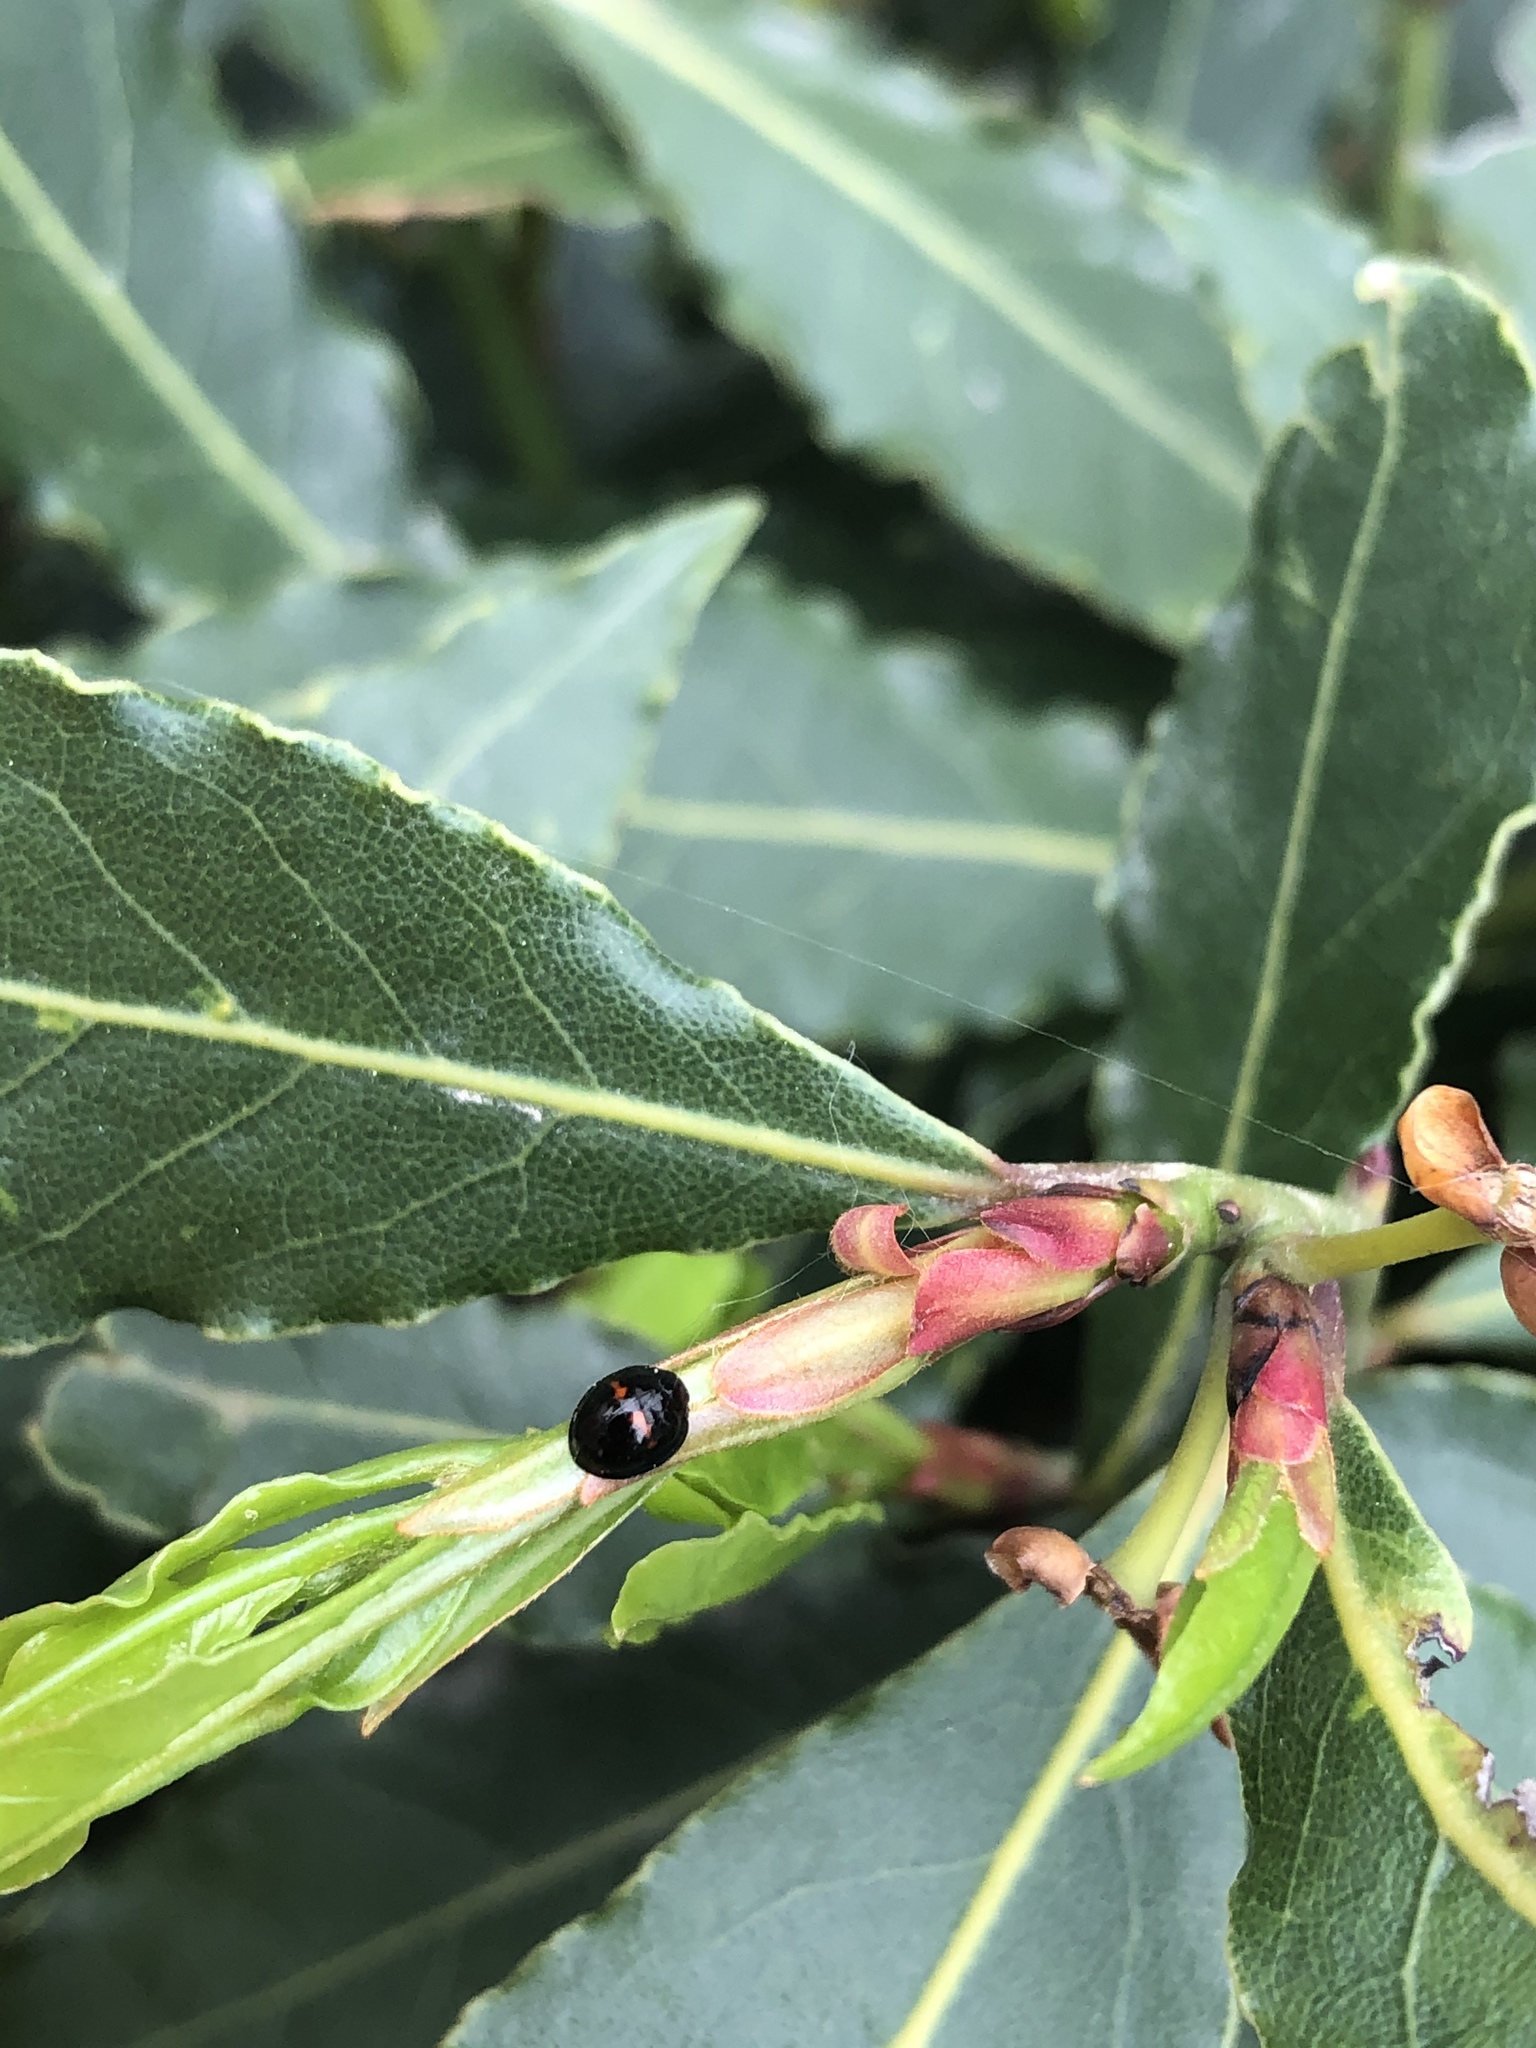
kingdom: Animalia
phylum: Arthropoda
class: Insecta
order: Coleoptera
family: Coccinellidae
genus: Chilocorus
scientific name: Chilocorus bipustulatus
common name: Heather ladybird
